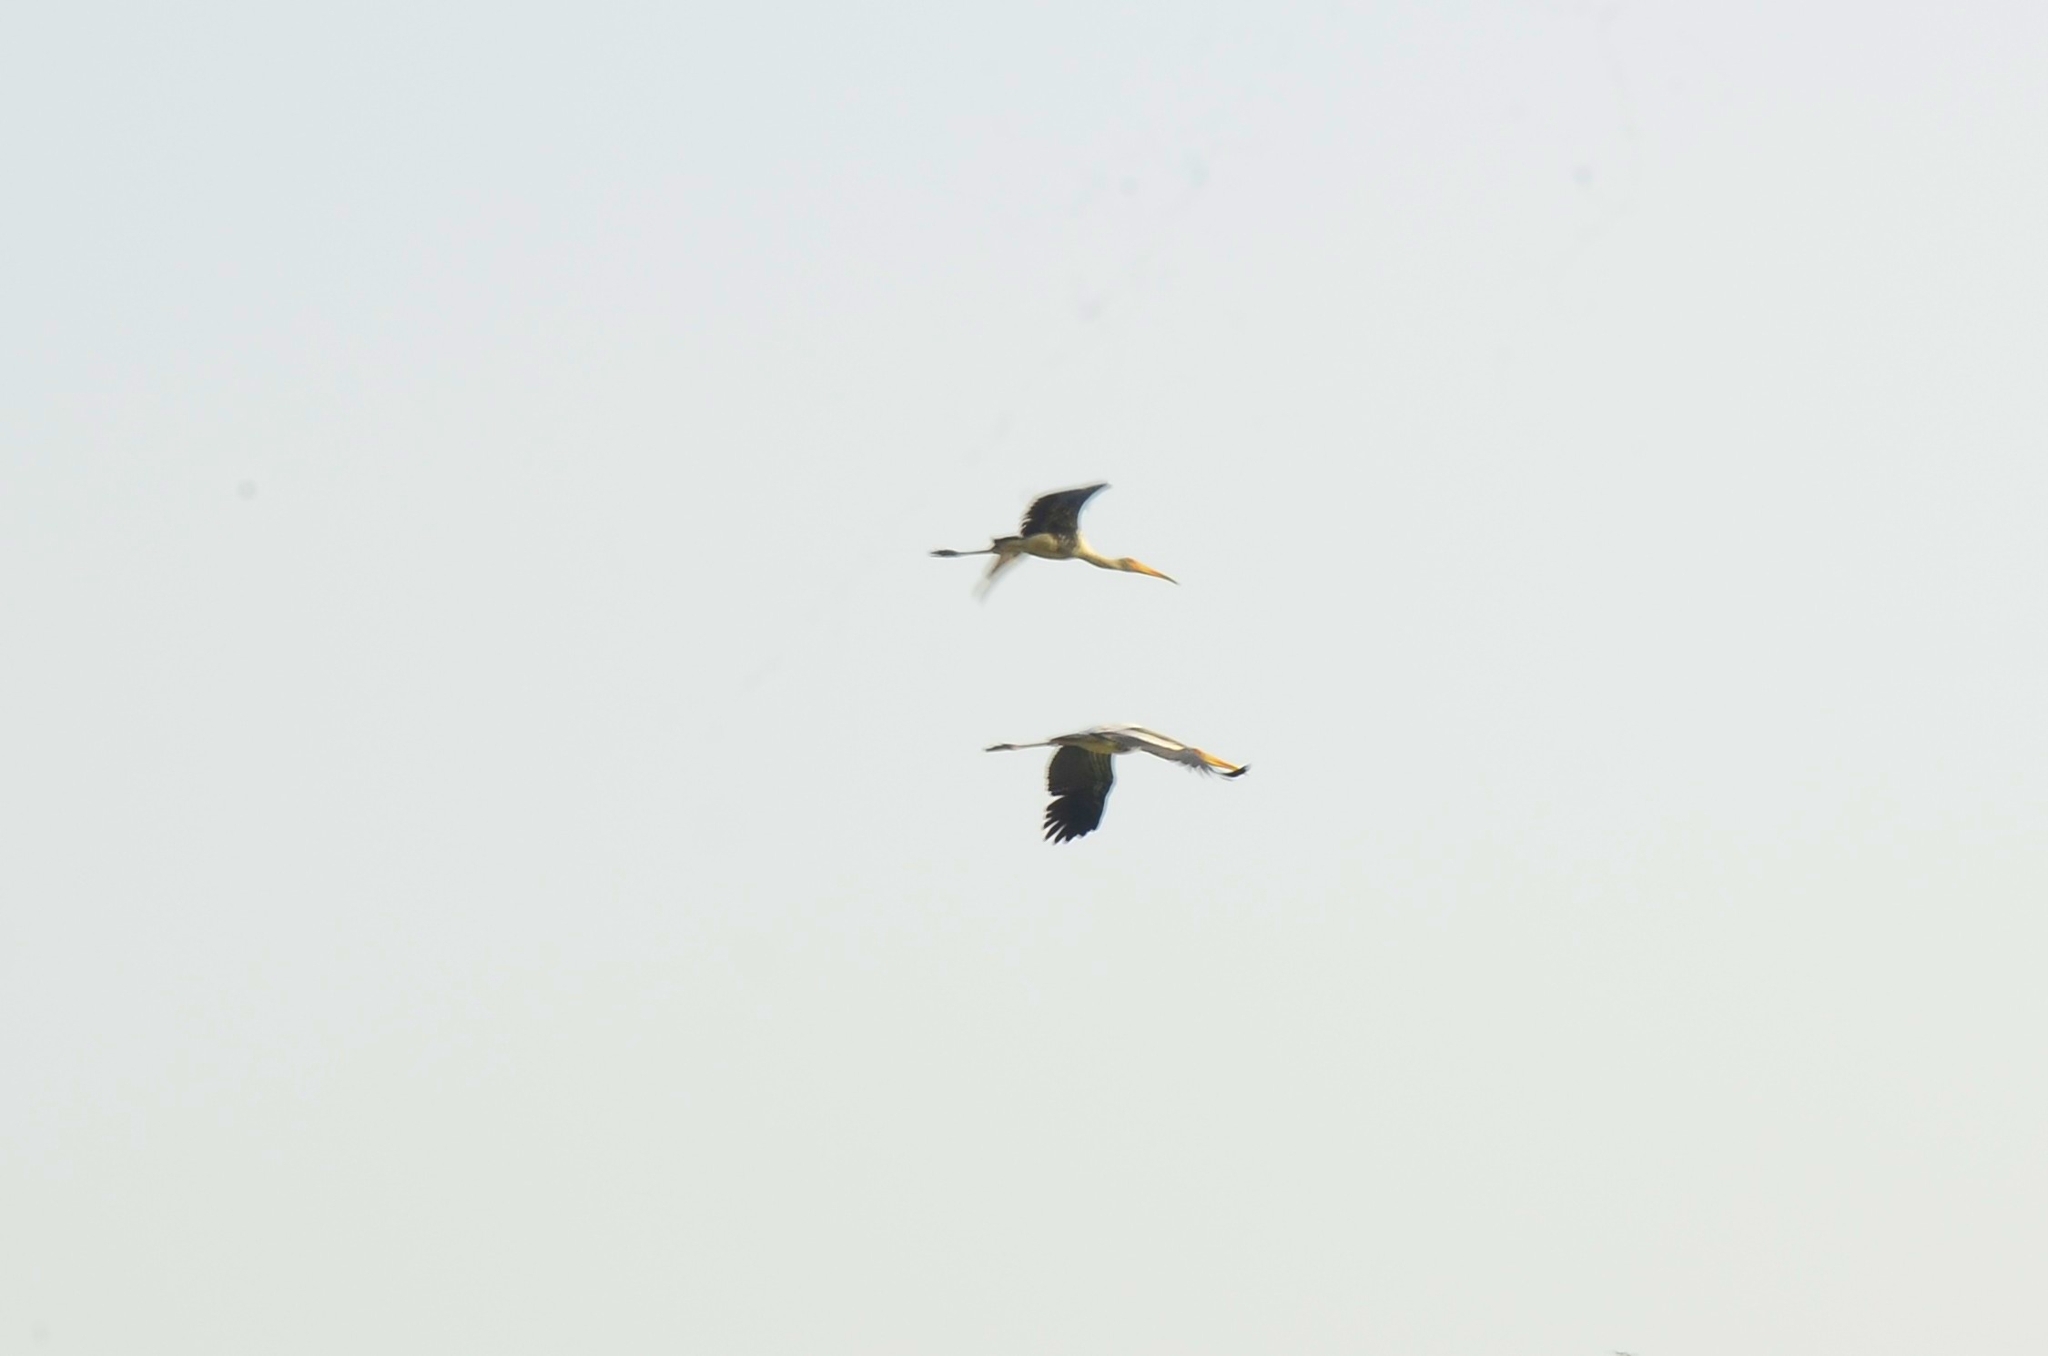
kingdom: Animalia
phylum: Chordata
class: Aves
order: Ciconiiformes
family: Ciconiidae
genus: Mycteria
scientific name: Mycteria leucocephala
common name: Painted stork
